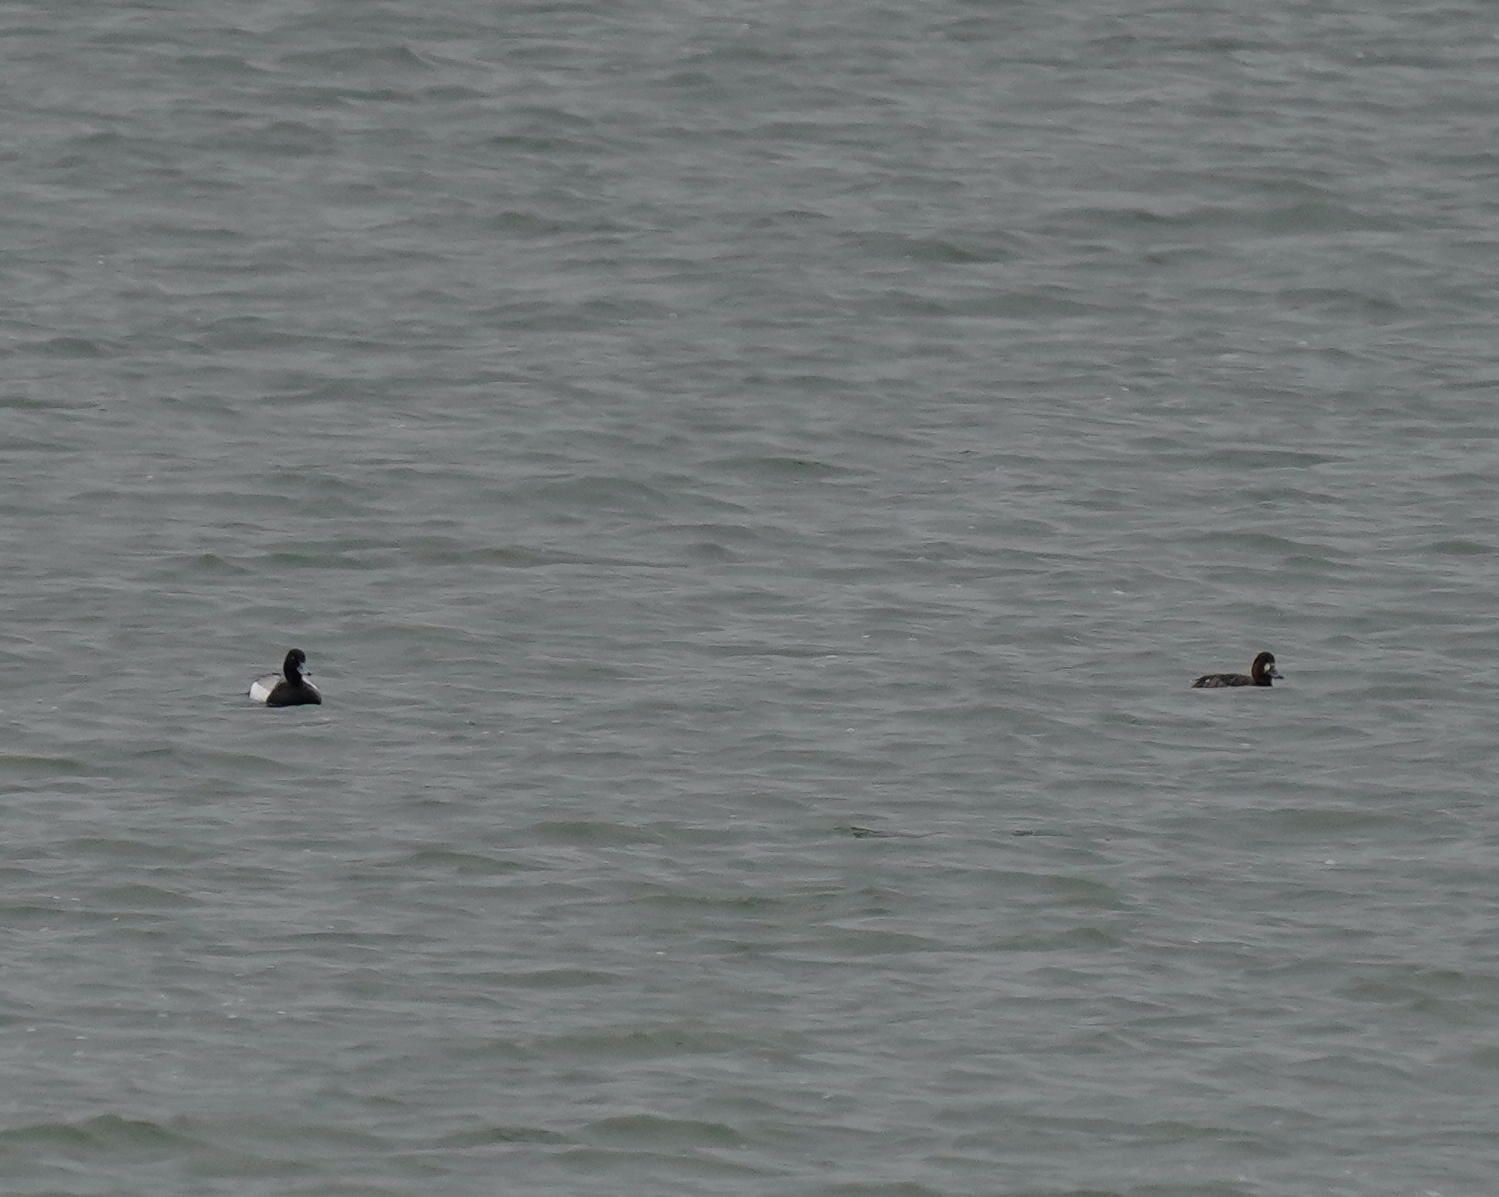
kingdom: Animalia
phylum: Chordata
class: Aves
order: Anseriformes
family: Anatidae
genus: Aythya
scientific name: Aythya affinis
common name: Lesser scaup
